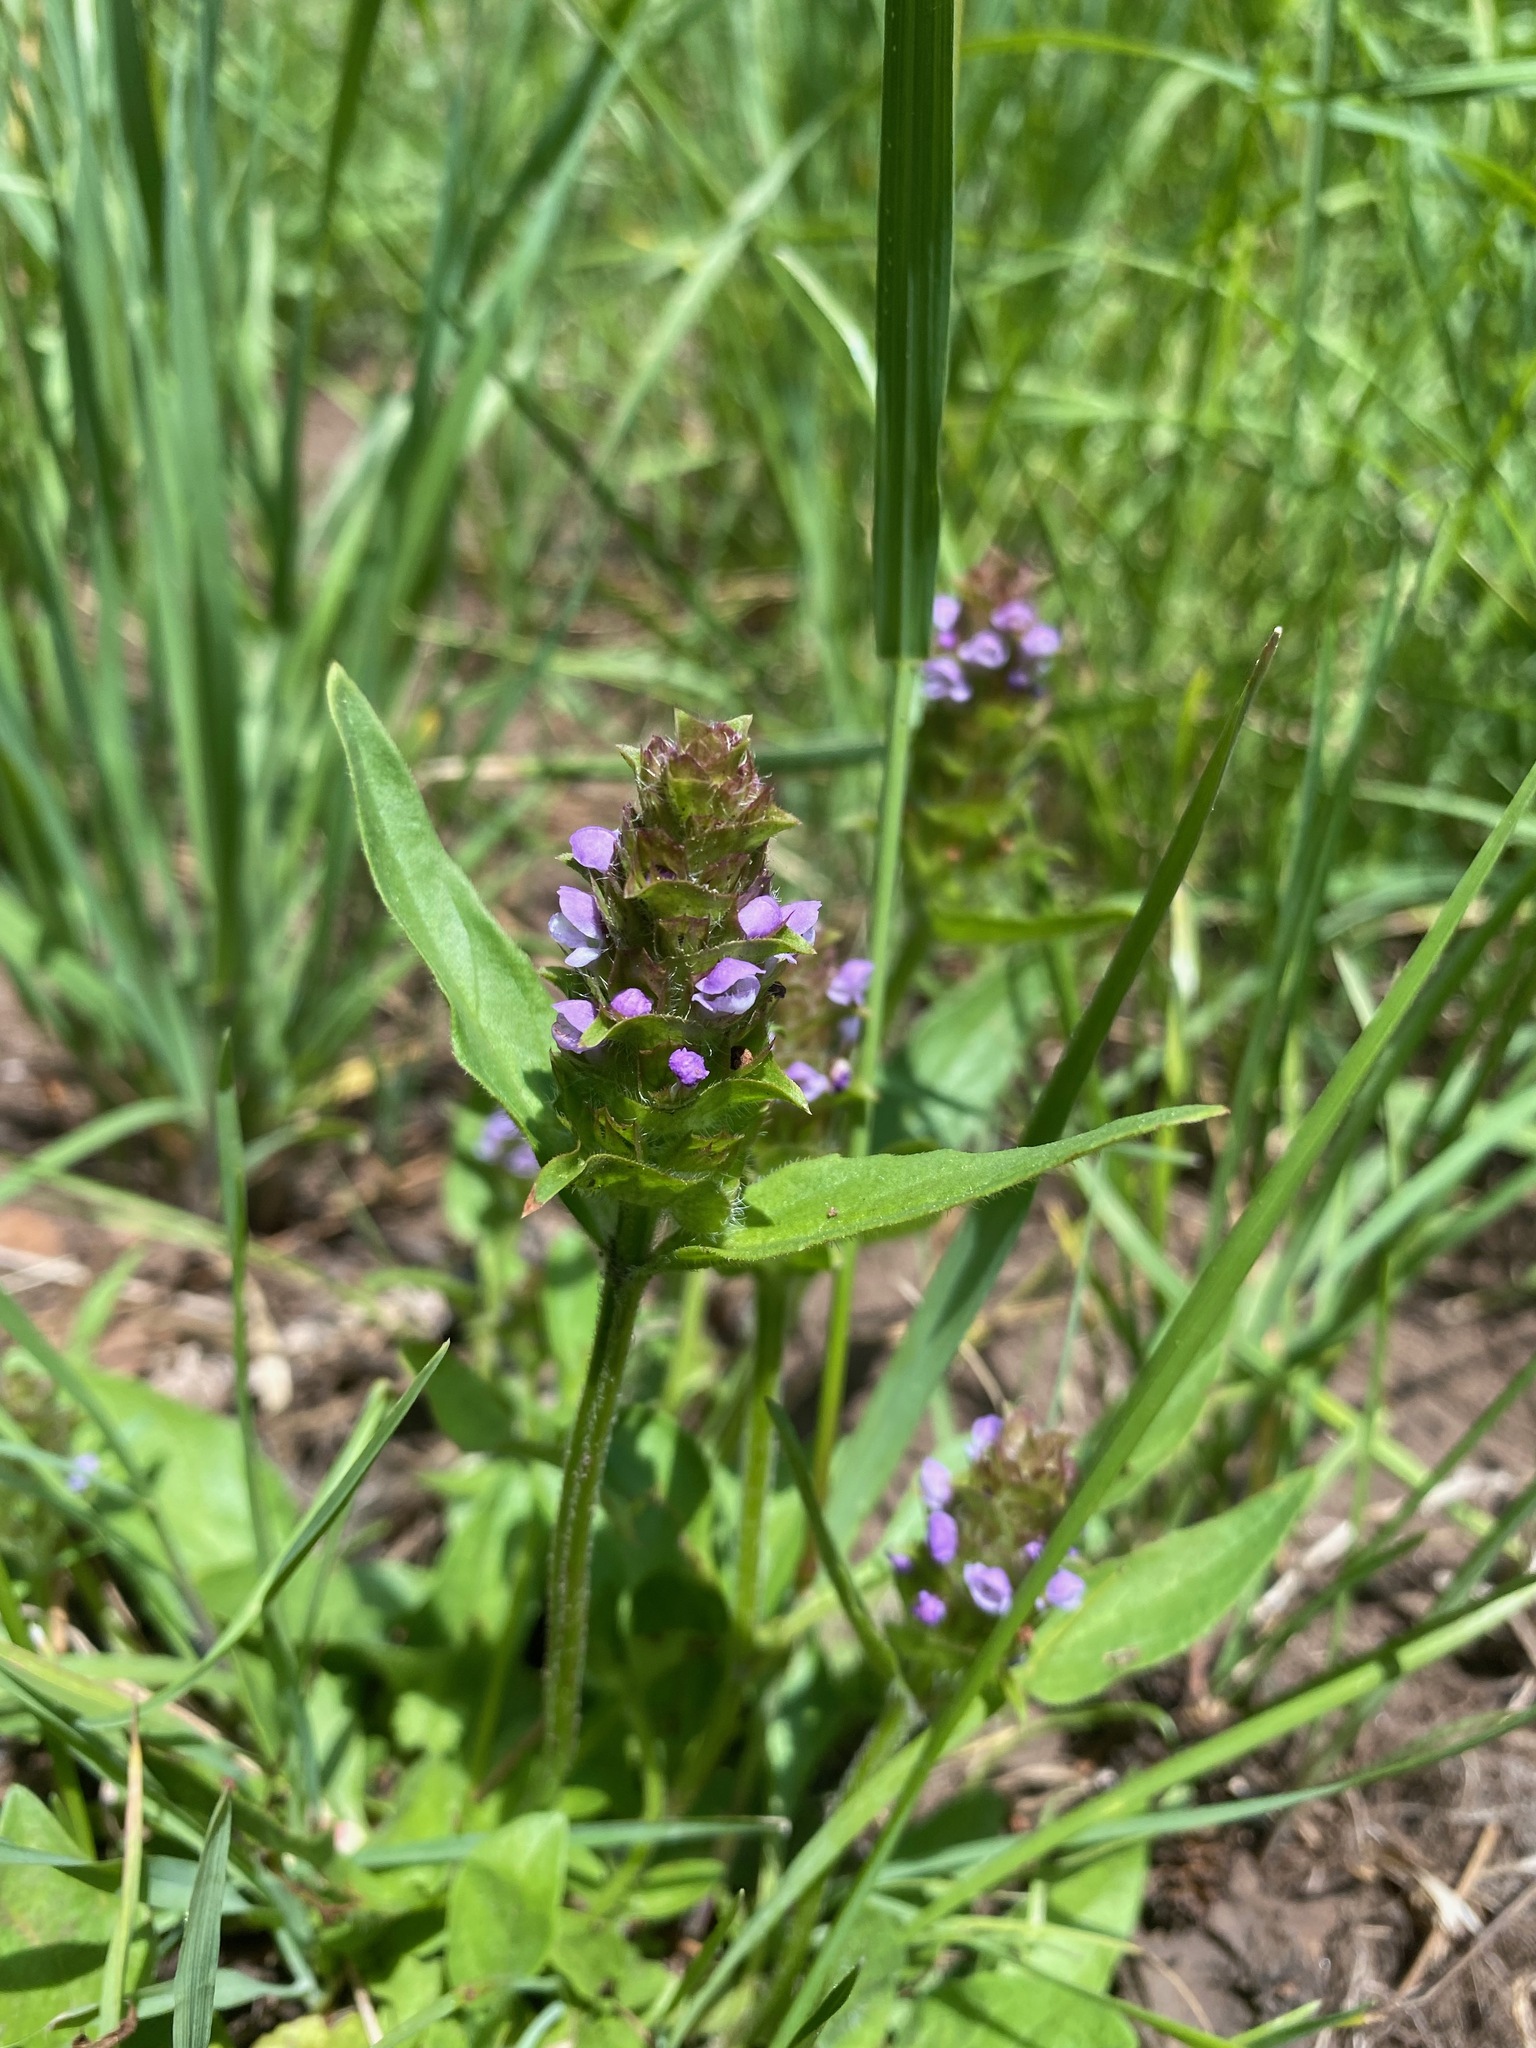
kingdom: Plantae
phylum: Tracheophyta
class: Magnoliopsida
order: Lamiales
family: Lamiaceae
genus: Prunella
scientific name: Prunella vulgaris
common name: Heal-all
